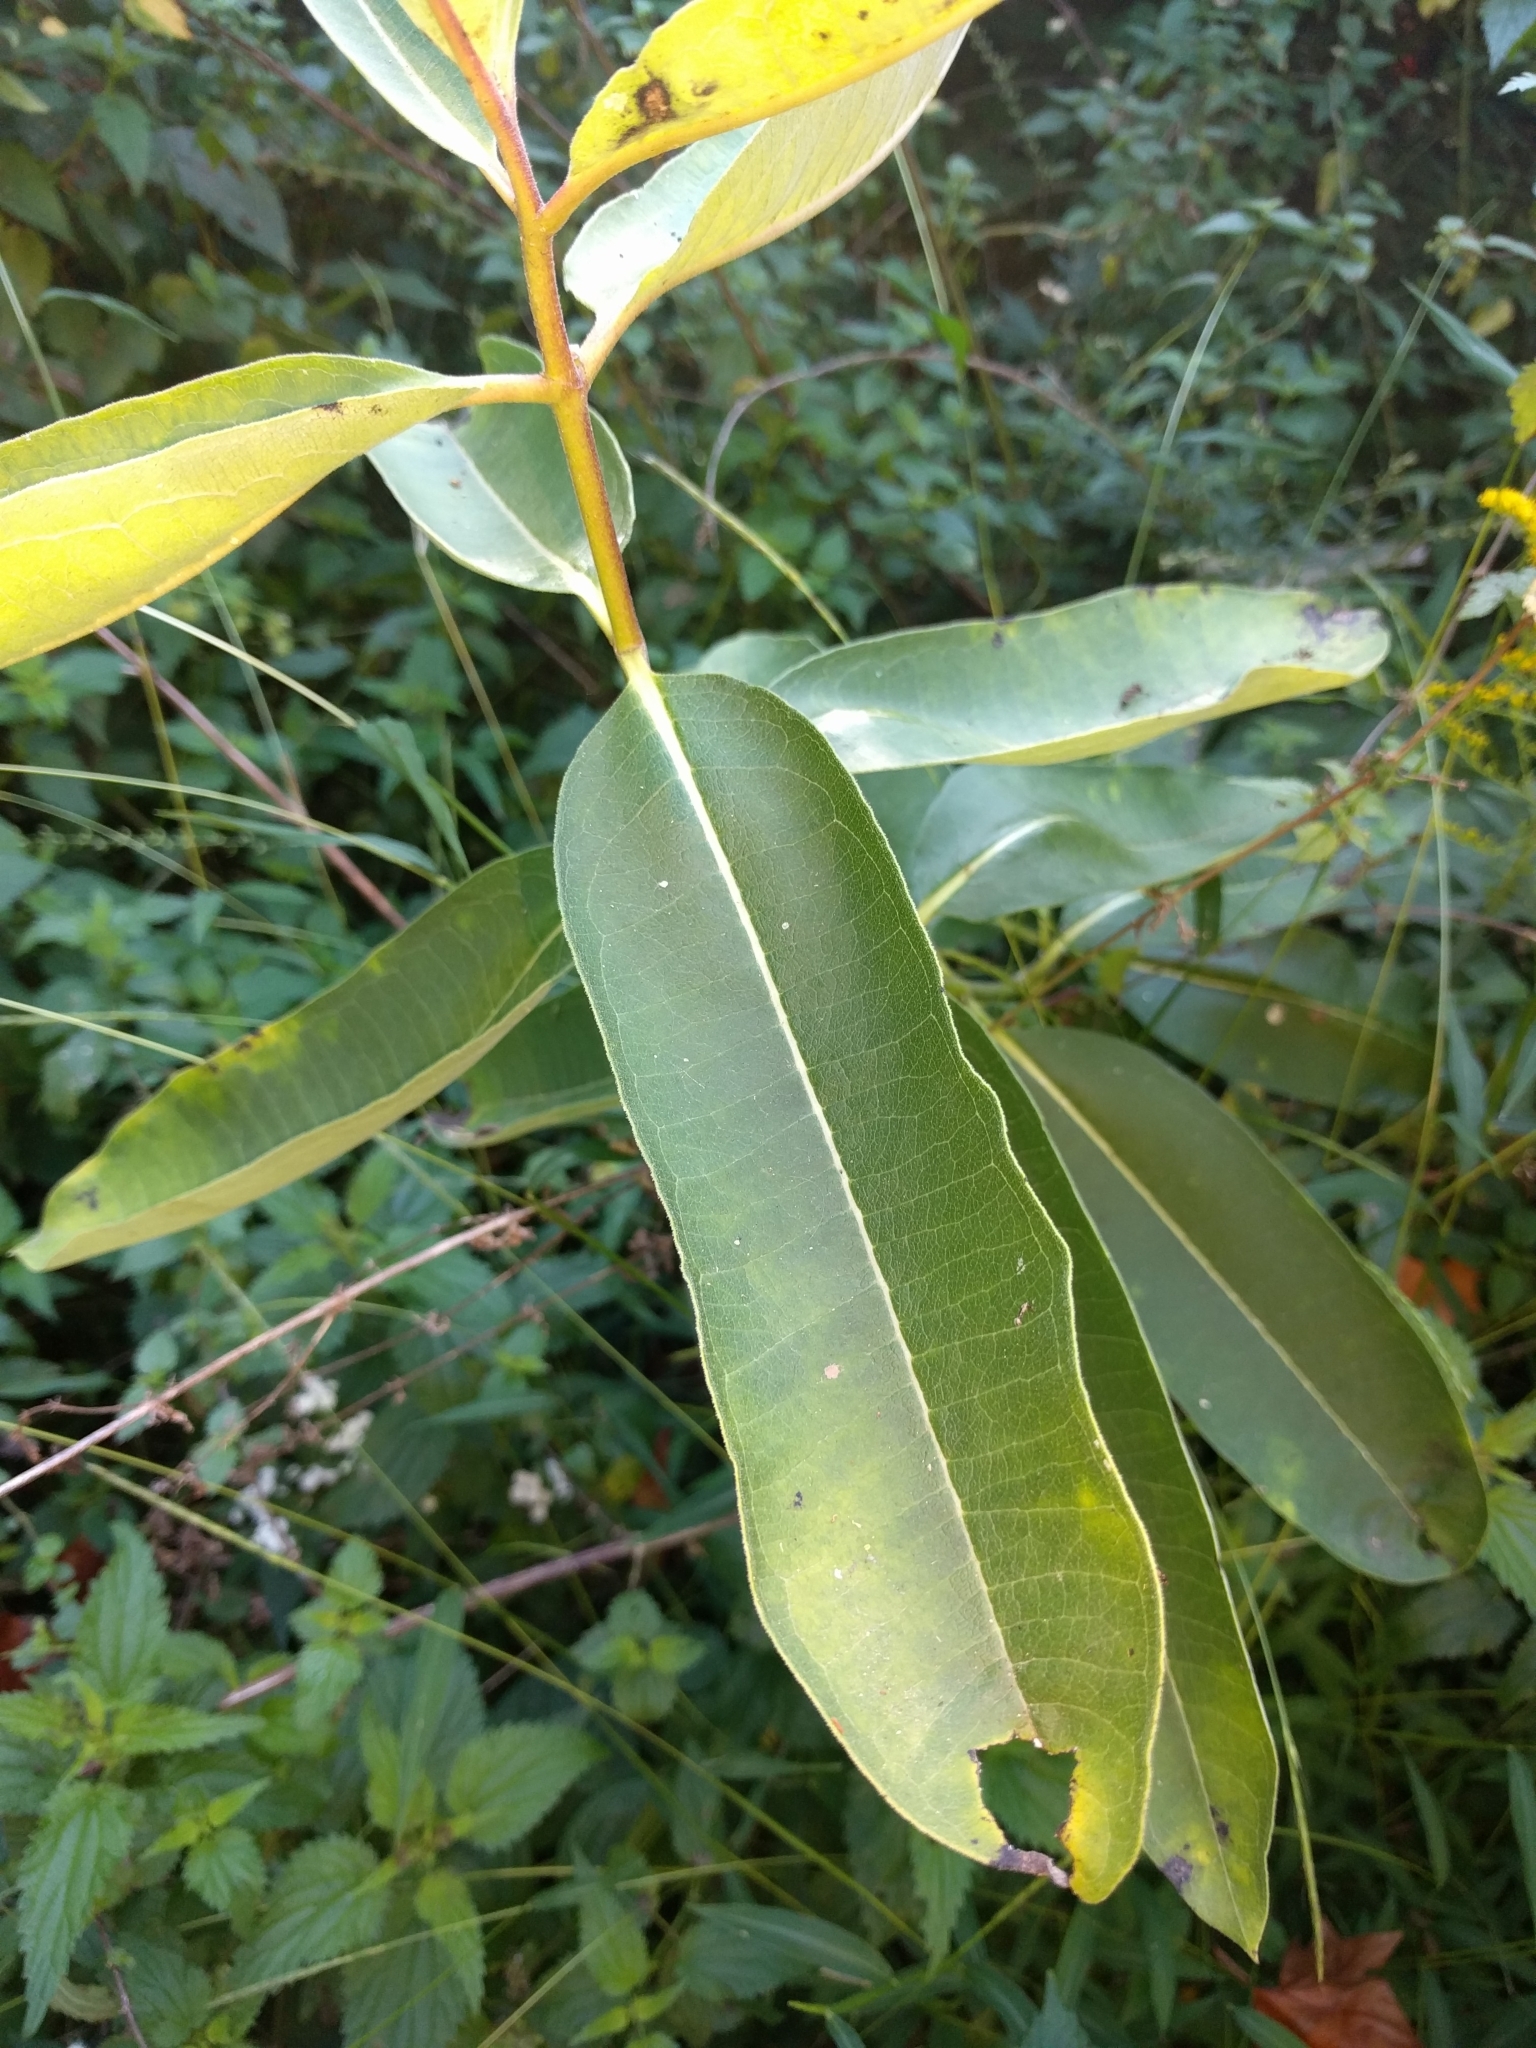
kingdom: Plantae
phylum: Tracheophyta
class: Magnoliopsida
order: Gentianales
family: Apocynaceae
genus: Asclepias
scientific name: Asclepias syriaca
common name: Common milkweed
